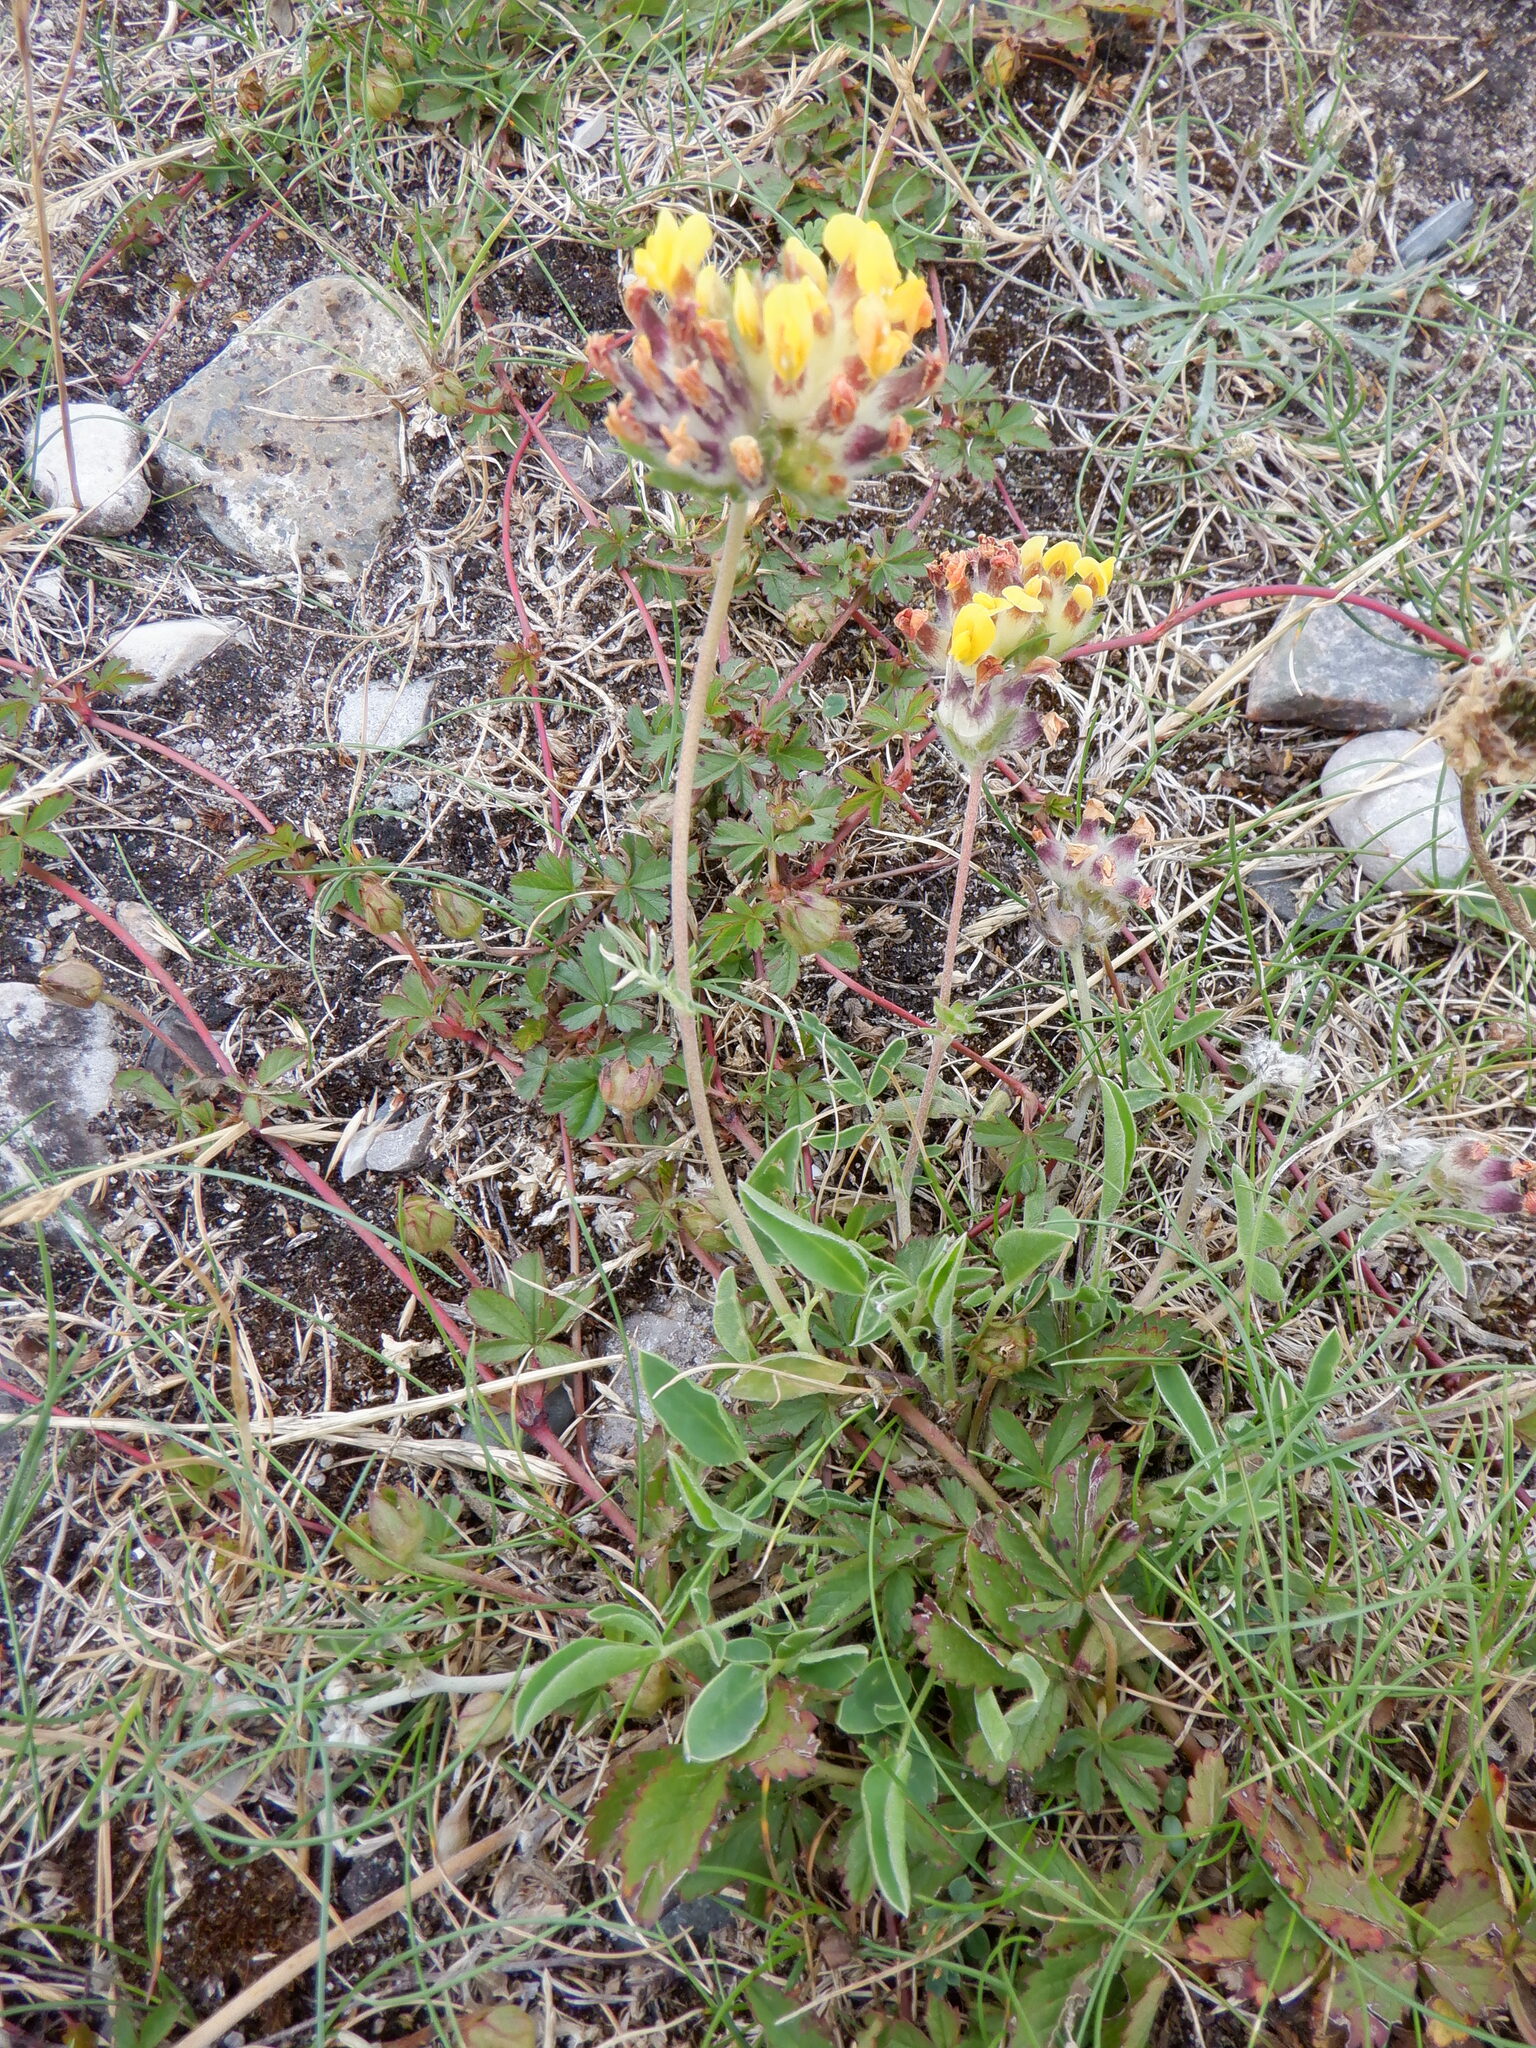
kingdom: Plantae
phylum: Tracheophyta
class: Magnoliopsida
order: Fabales
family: Fabaceae
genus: Anthyllis
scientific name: Anthyllis vulneraria
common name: Kidney vetch
